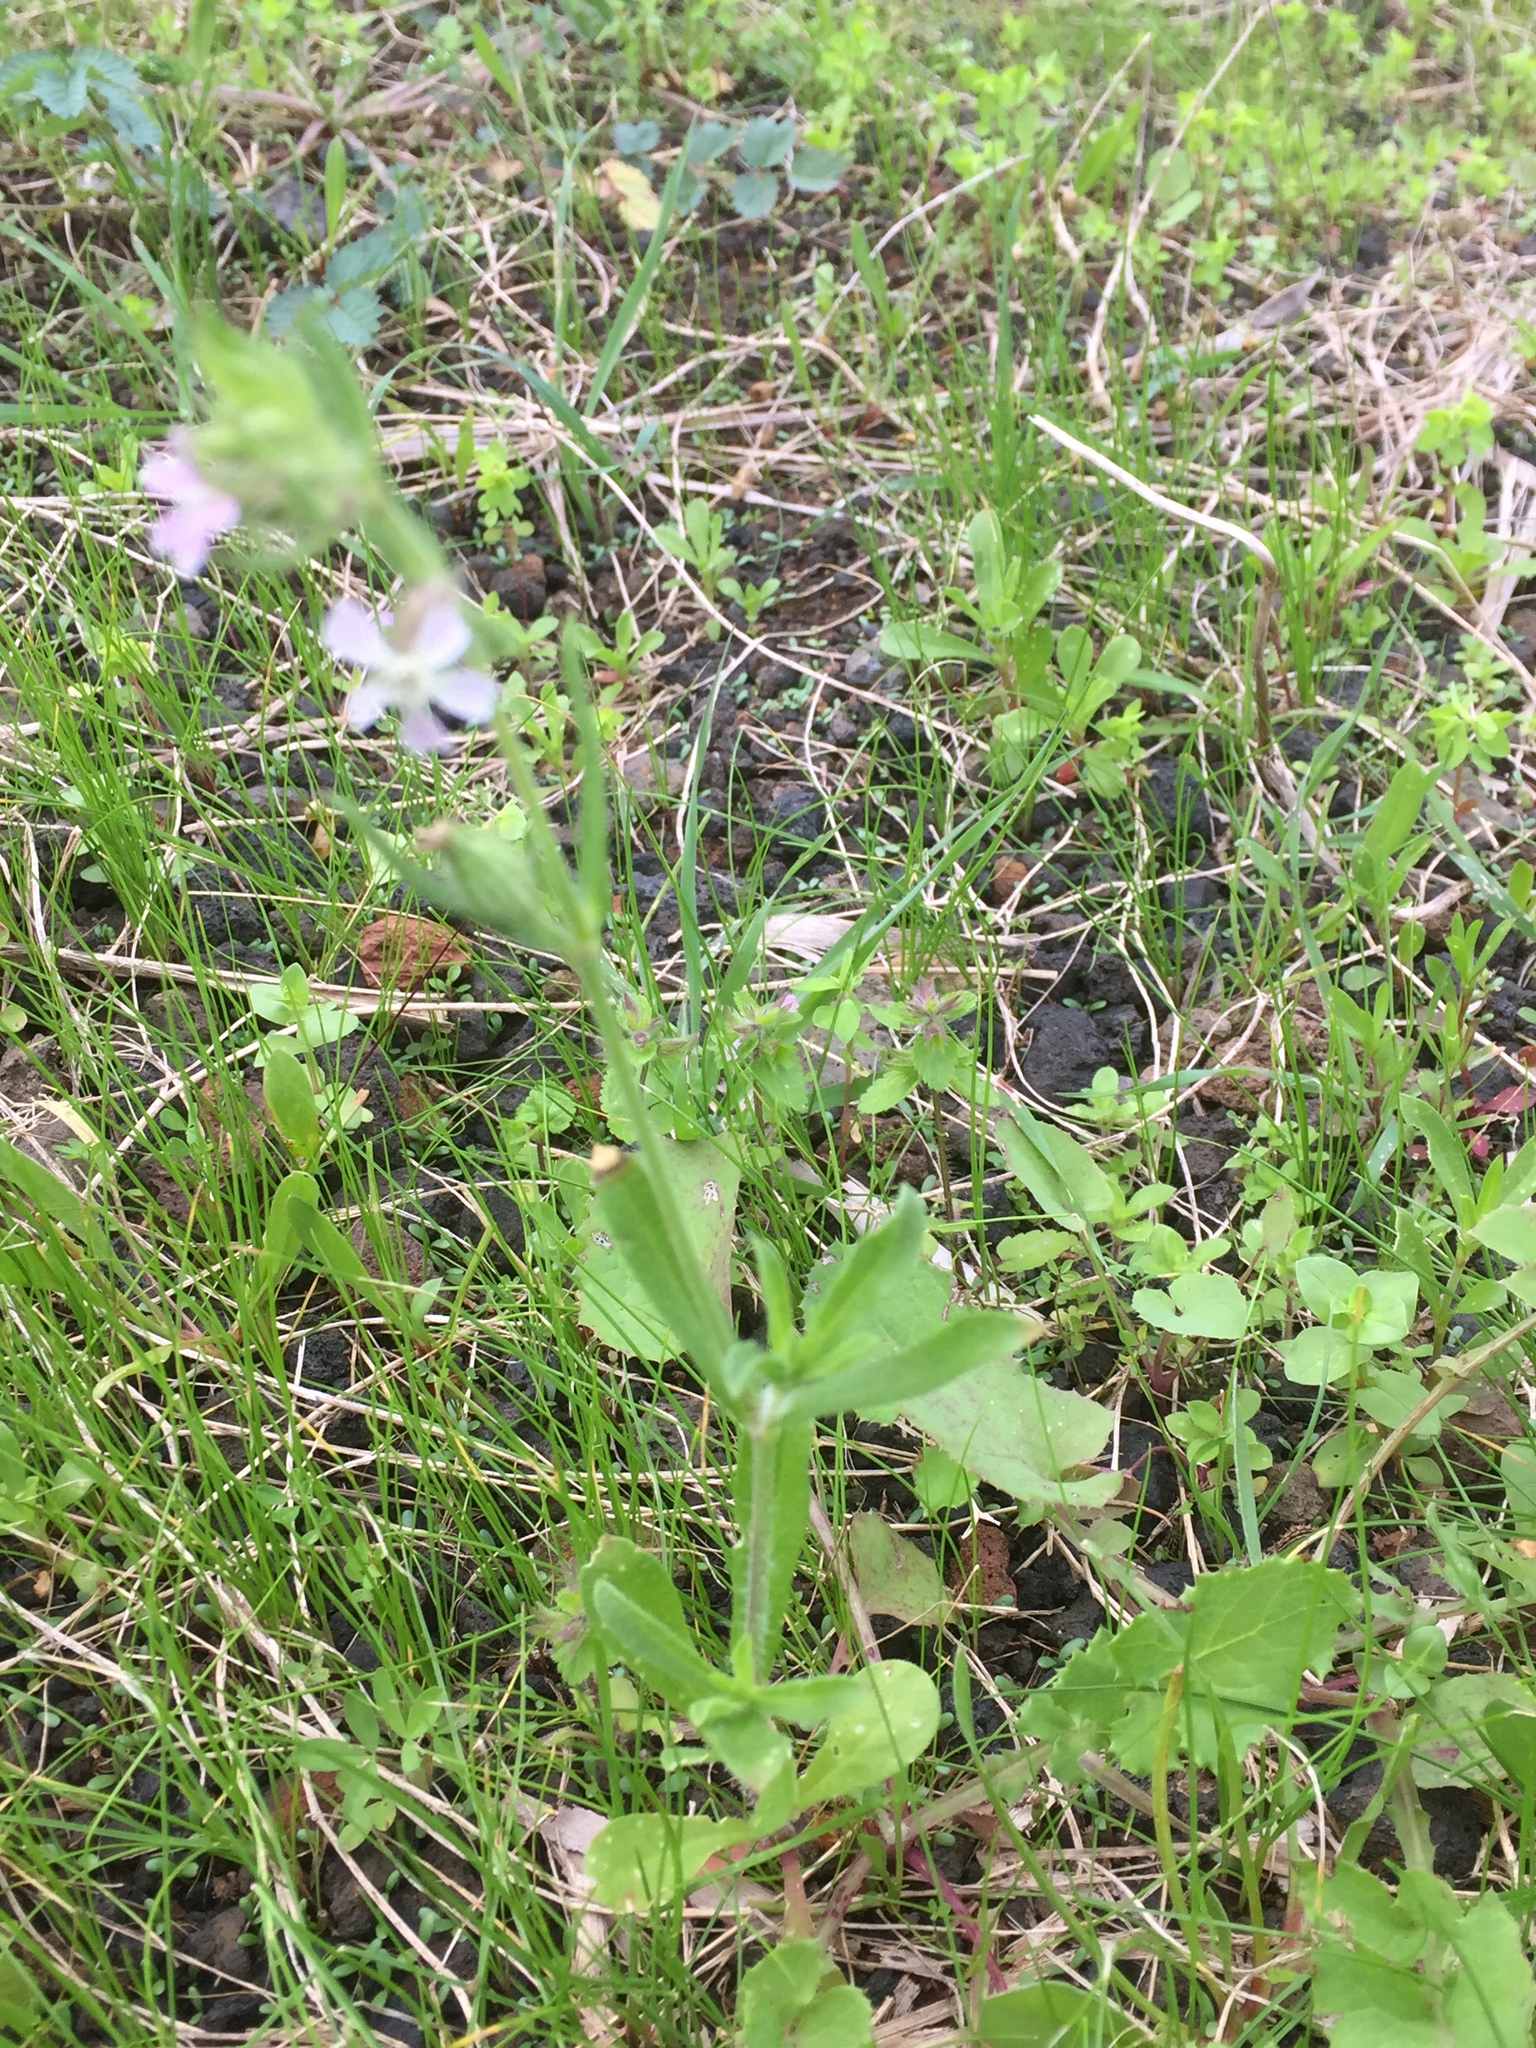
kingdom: Plantae
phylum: Tracheophyta
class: Magnoliopsida
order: Caryophyllales
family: Caryophyllaceae
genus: Silene
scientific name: Silene gallica
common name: Small-flowered catchfly
